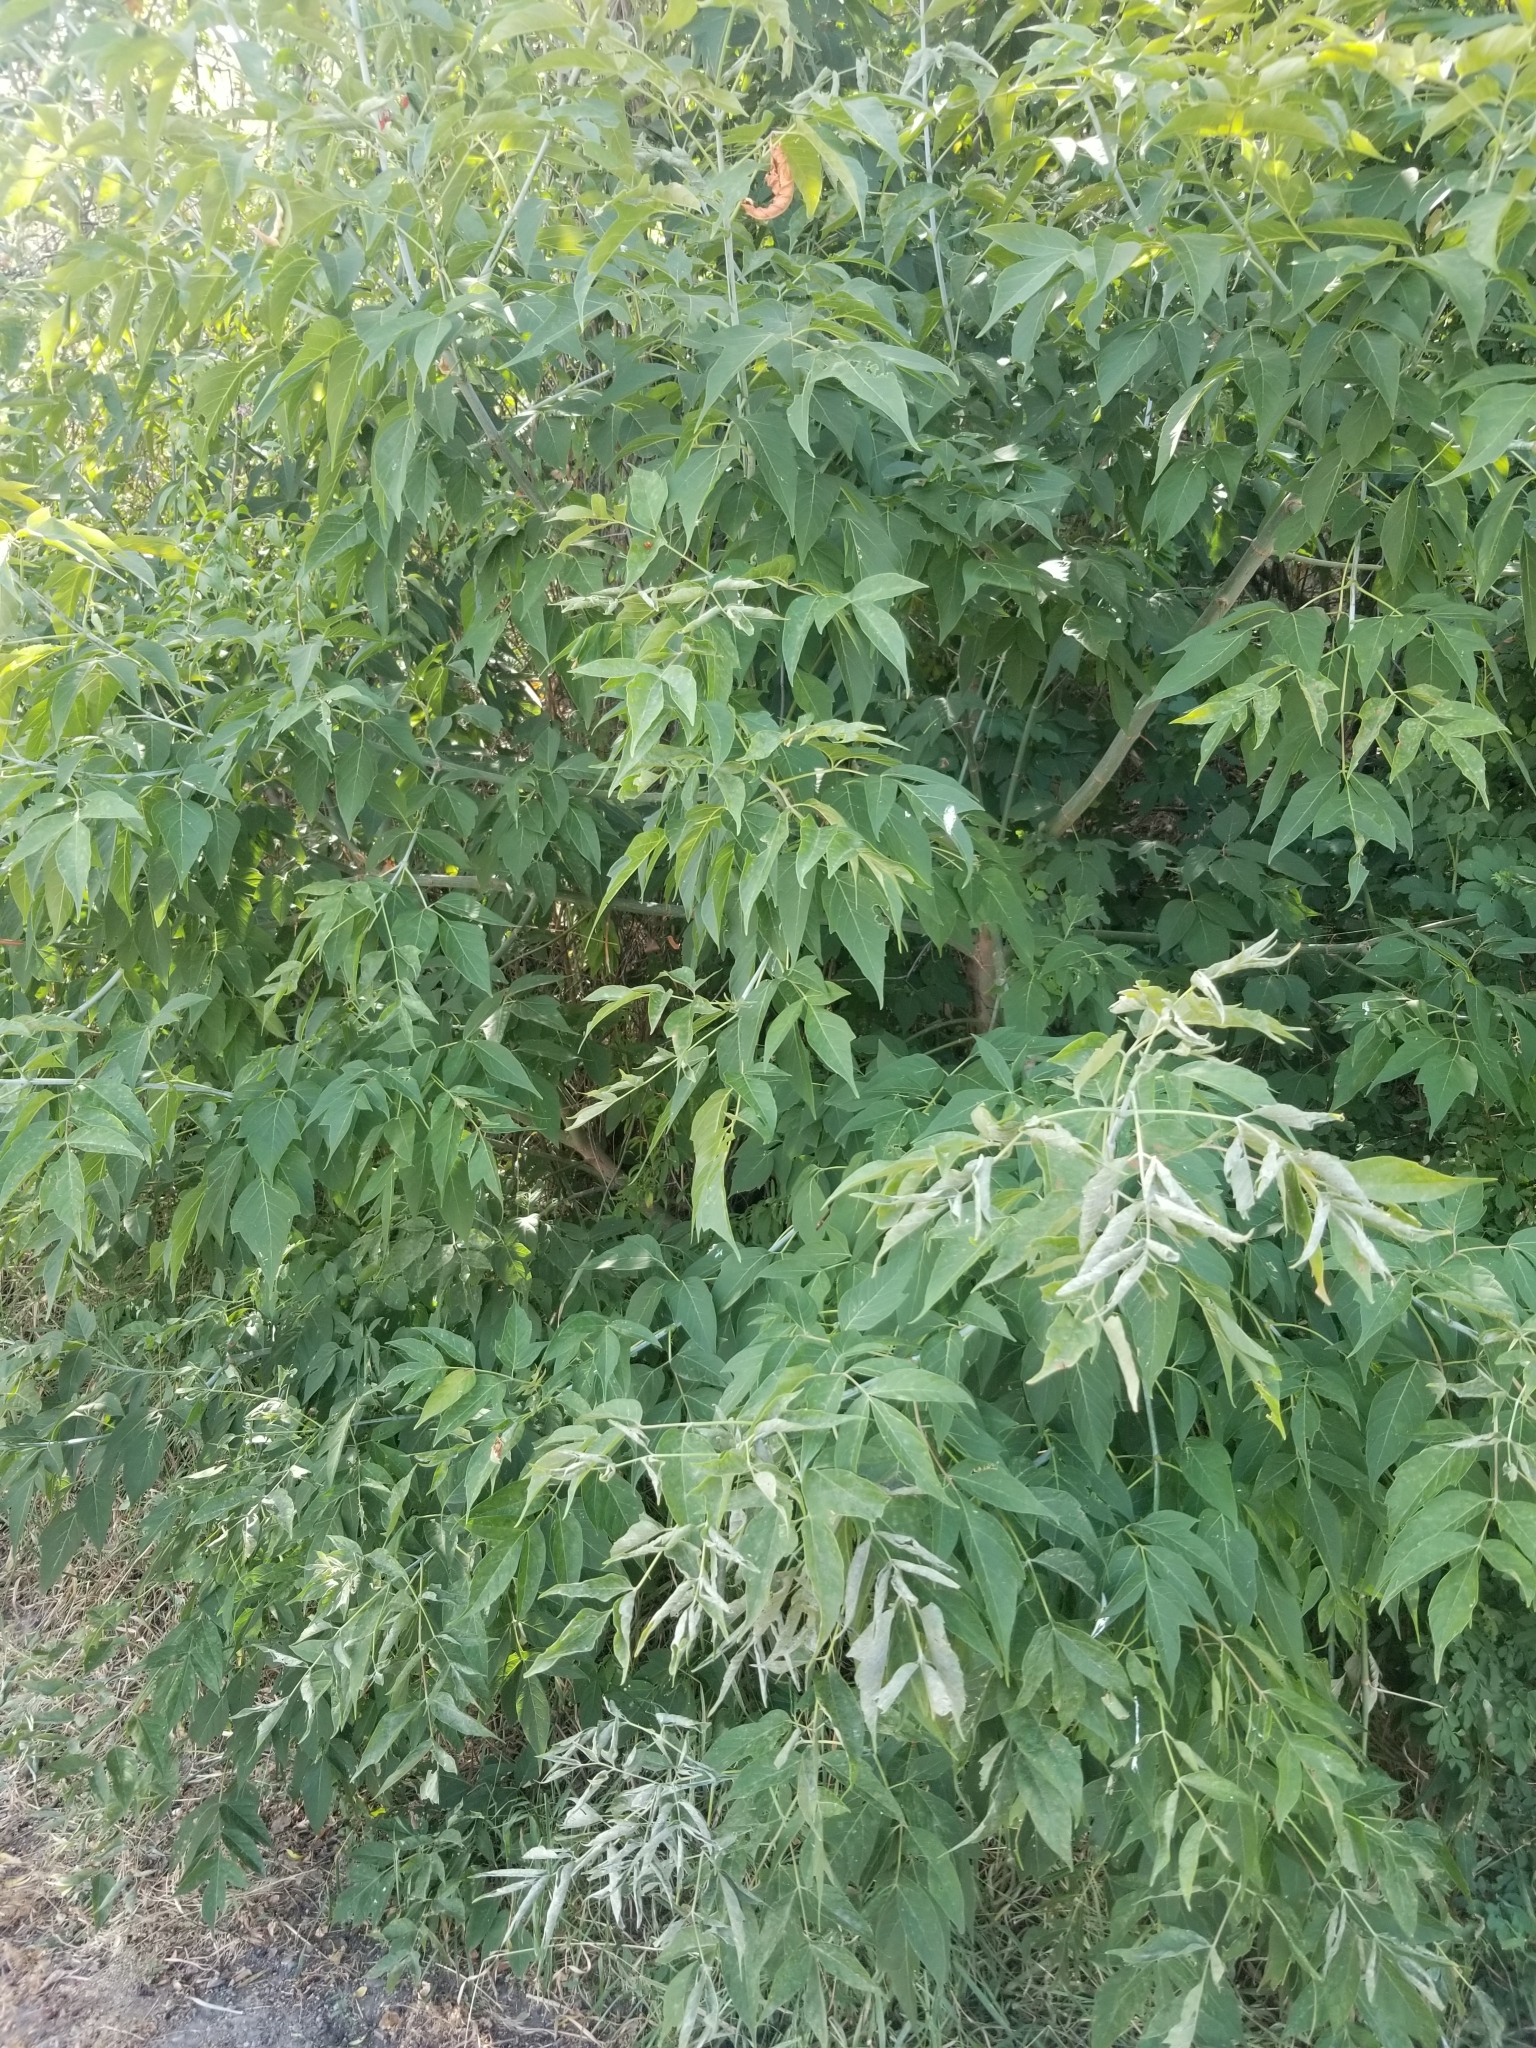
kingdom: Plantae
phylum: Tracheophyta
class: Magnoliopsida
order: Sapindales
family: Sapindaceae
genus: Acer
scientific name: Acer negundo
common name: Ashleaf maple
